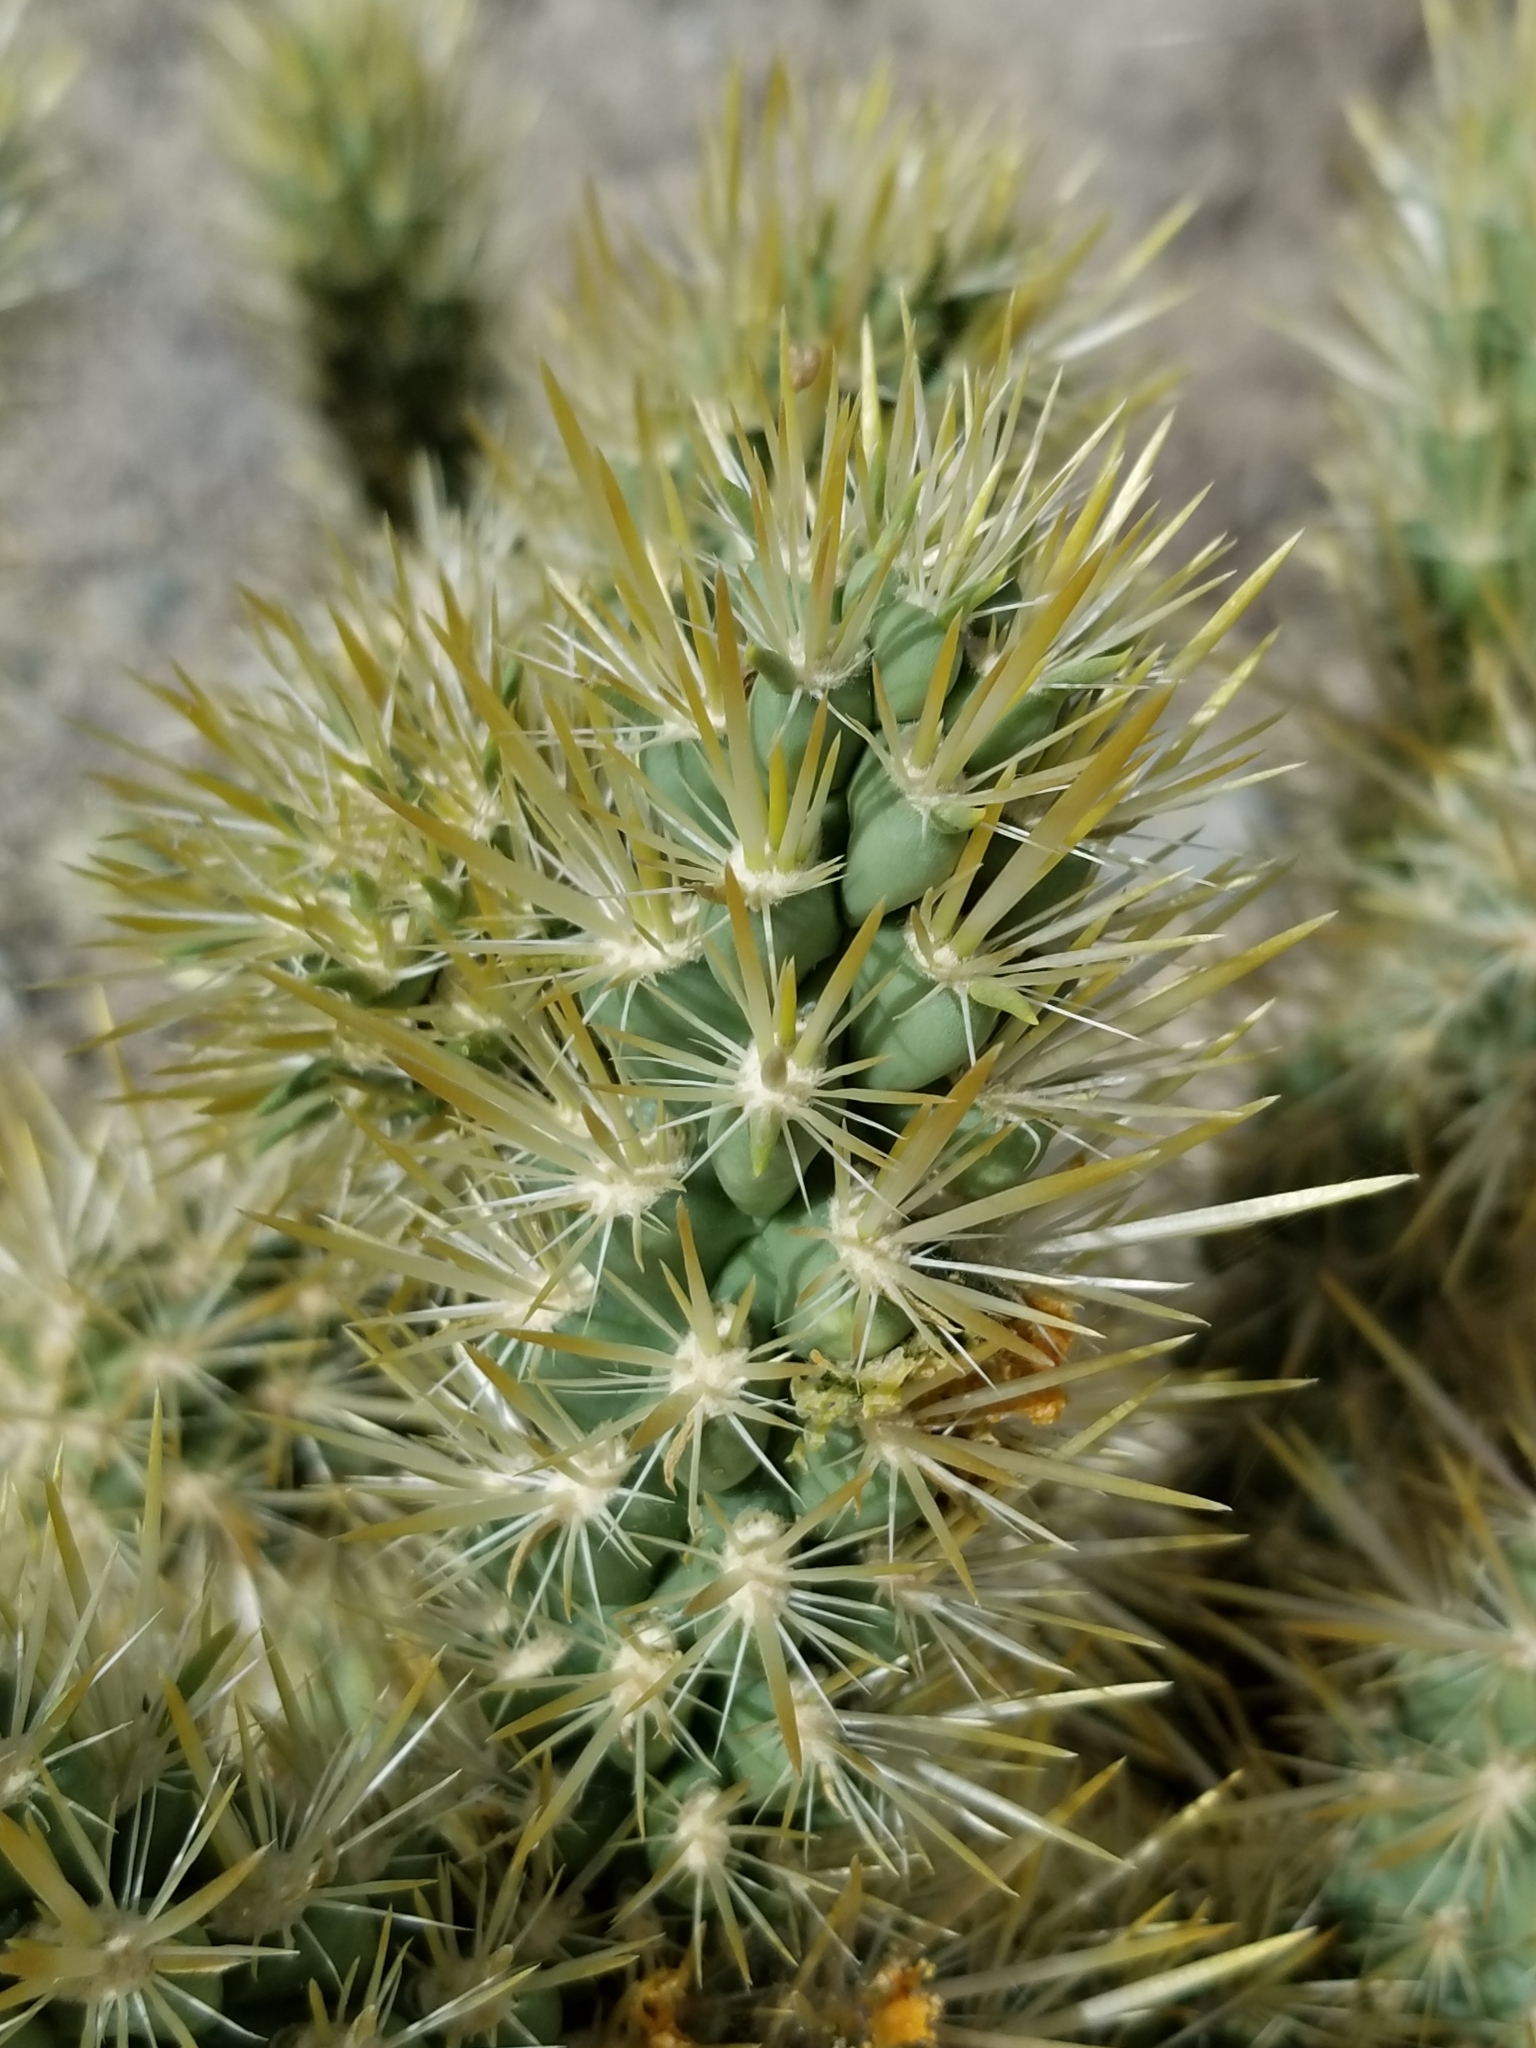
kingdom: Plantae
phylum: Tracheophyta
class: Magnoliopsida
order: Caryophyllales
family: Cactaceae
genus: Cylindropuntia
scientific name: Cylindropuntia echinocarpa
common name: Ground cholla
